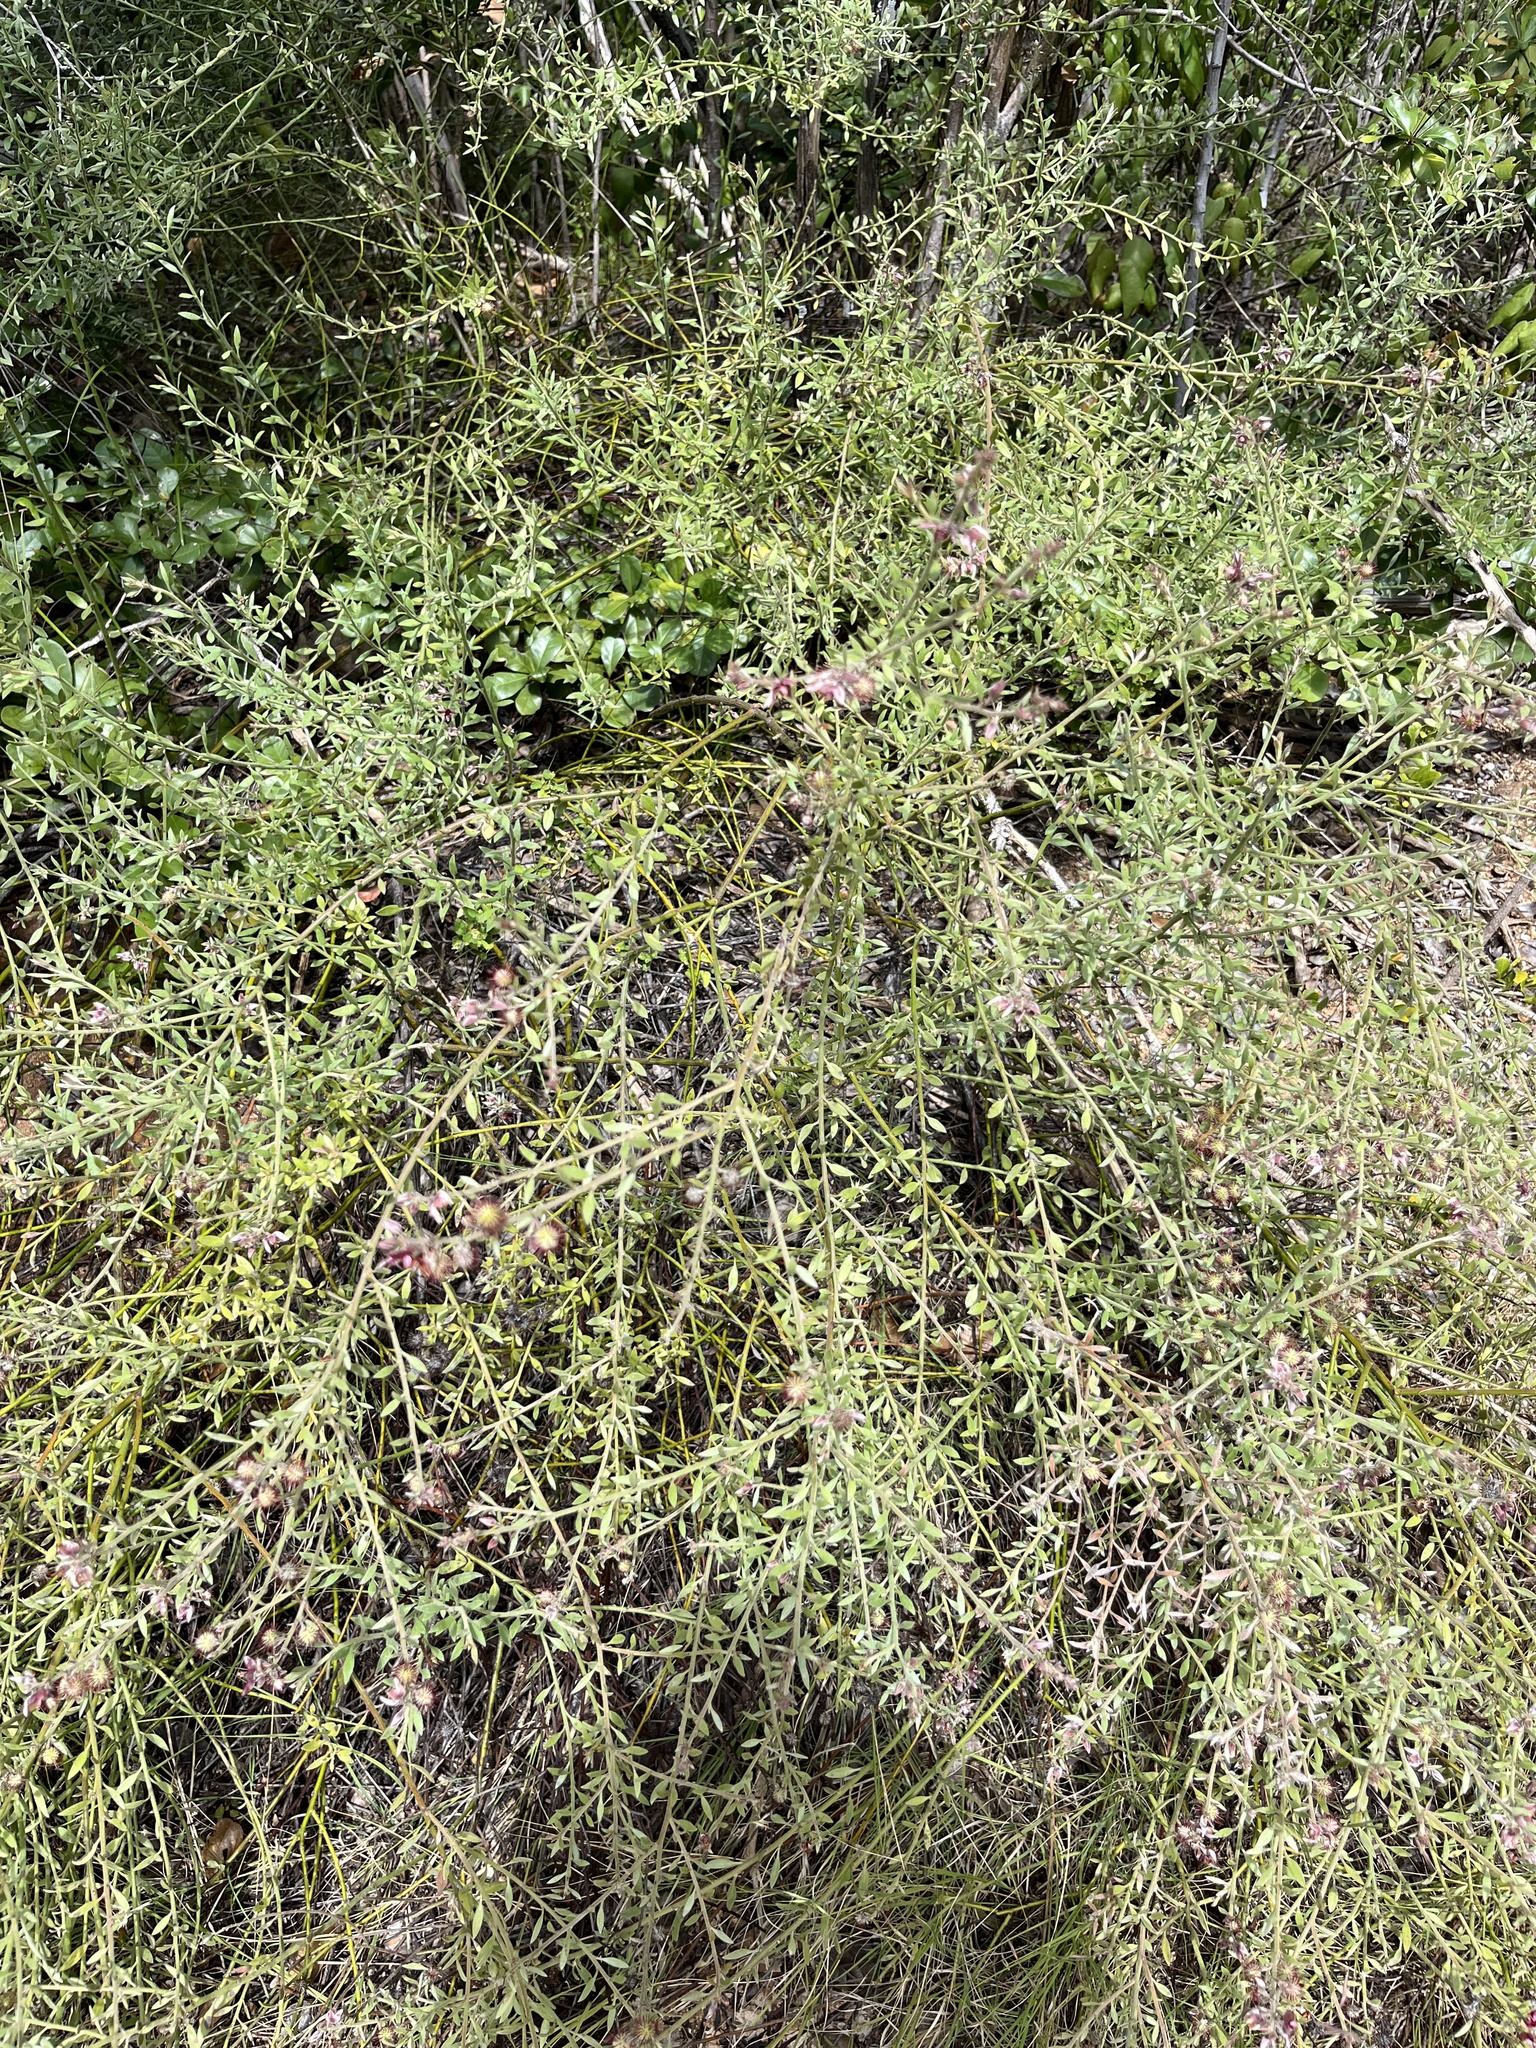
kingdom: Plantae
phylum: Tracheophyta
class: Magnoliopsida
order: Zygophyllales
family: Krameriaceae
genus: Krameria
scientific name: Krameria ixine
